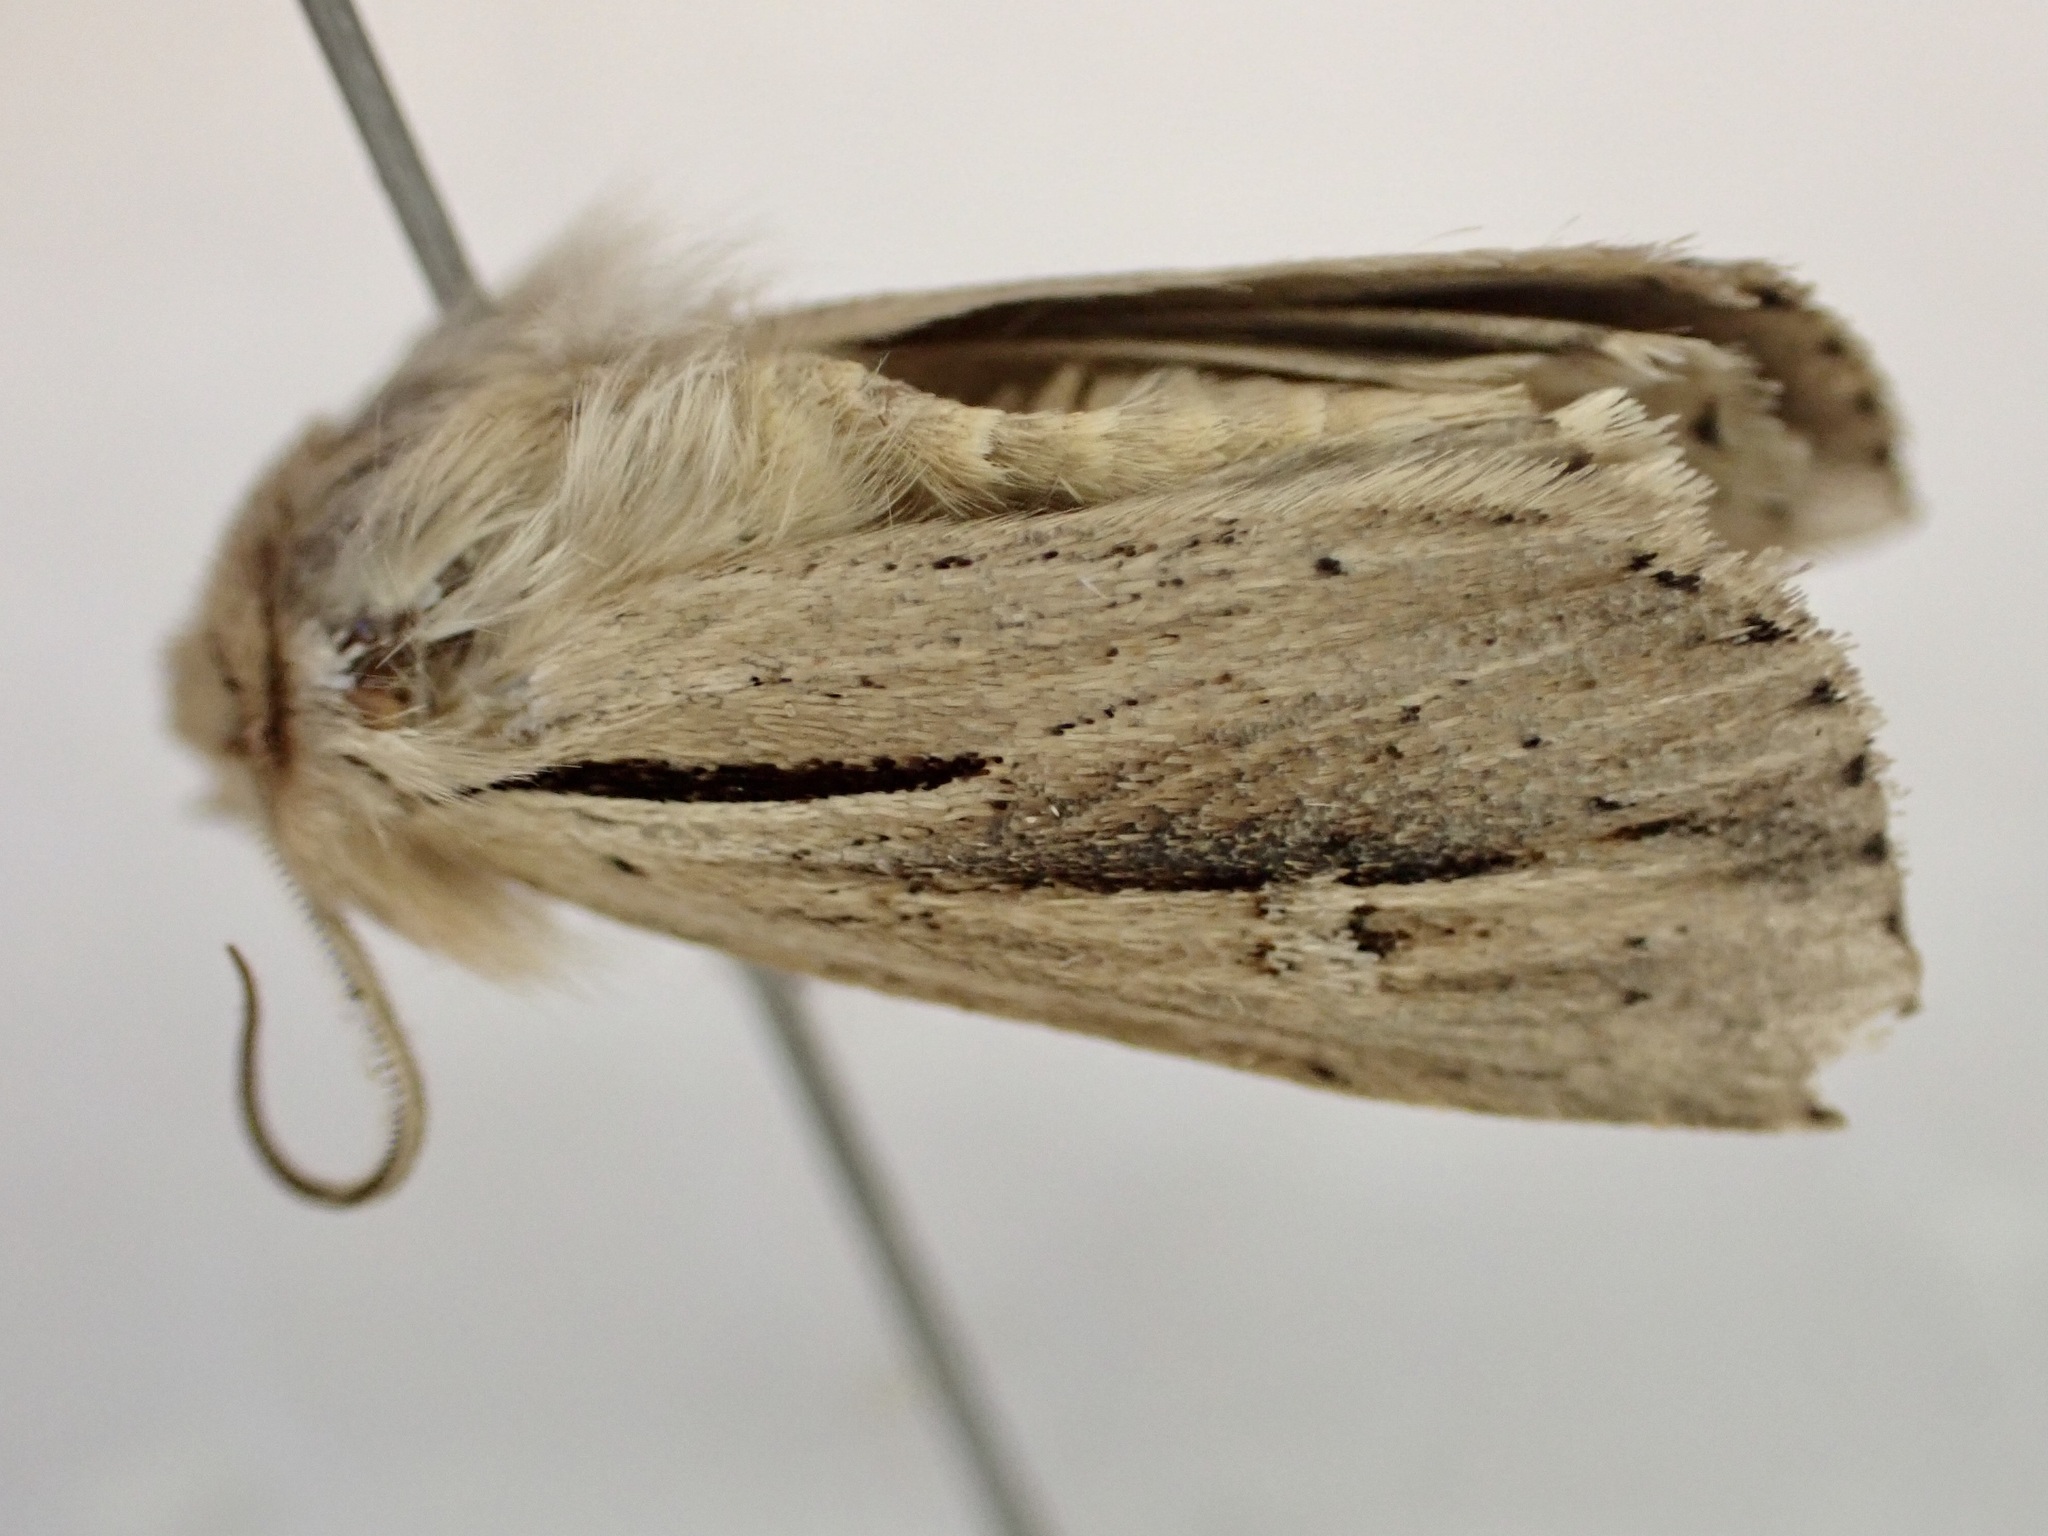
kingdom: Animalia
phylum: Arthropoda
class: Insecta
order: Lepidoptera
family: Noctuidae
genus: Ichneutica
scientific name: Ichneutica propria
